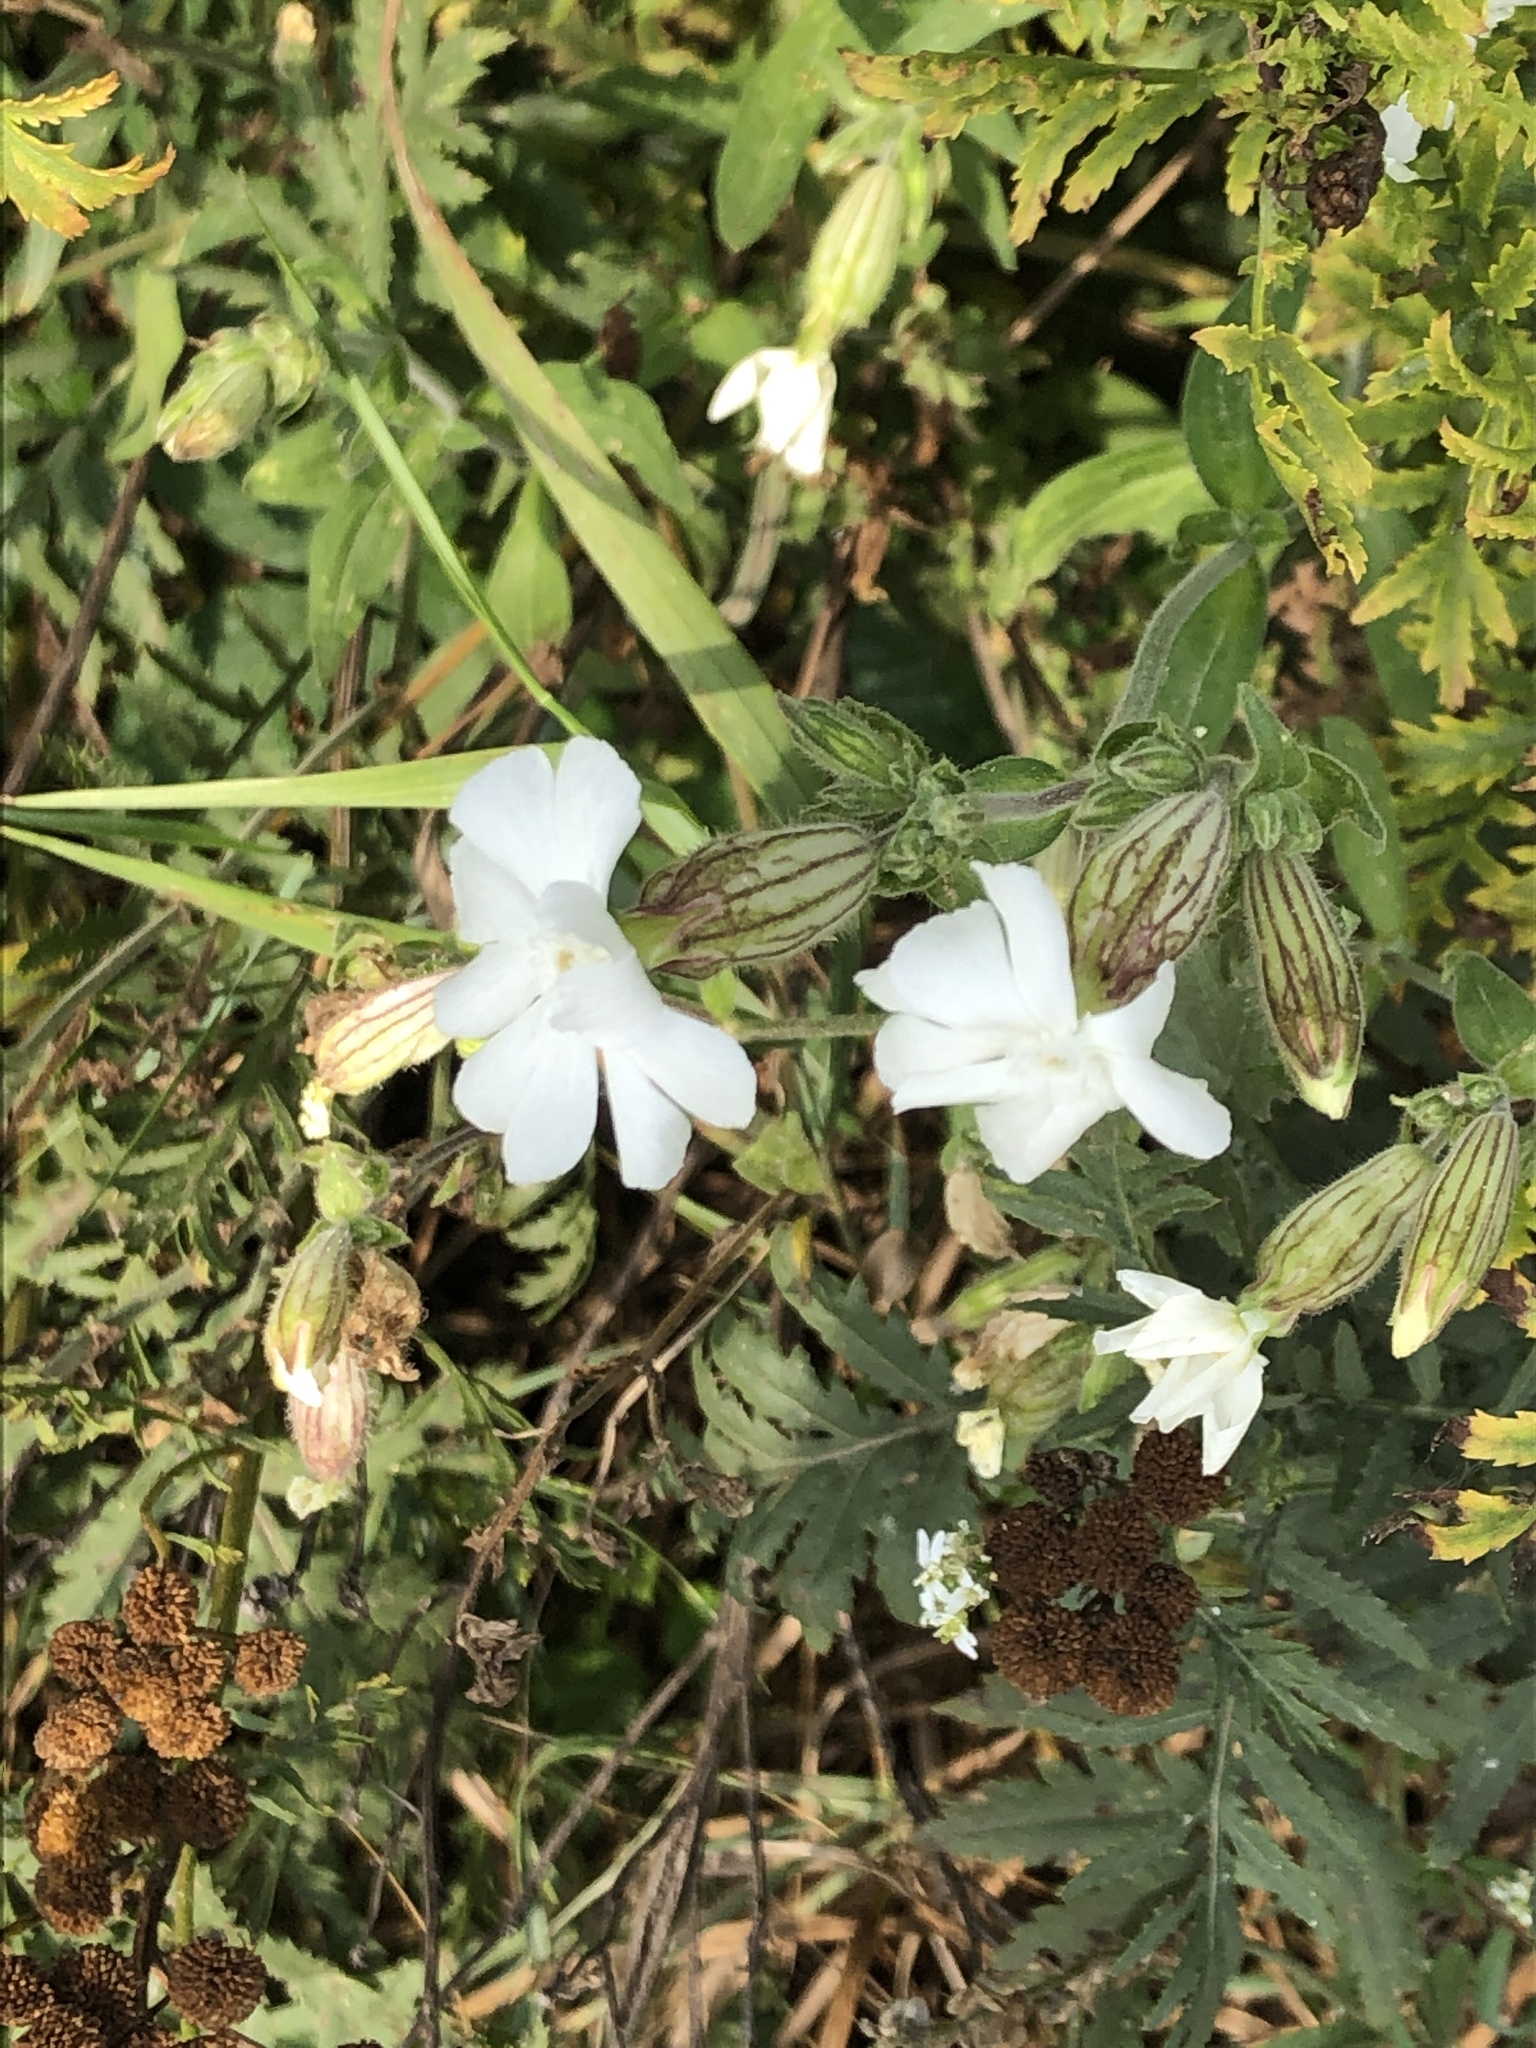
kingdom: Plantae
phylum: Tracheophyta
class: Magnoliopsida
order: Caryophyllales
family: Caryophyllaceae
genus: Silene
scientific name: Silene latifolia
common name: White campion
